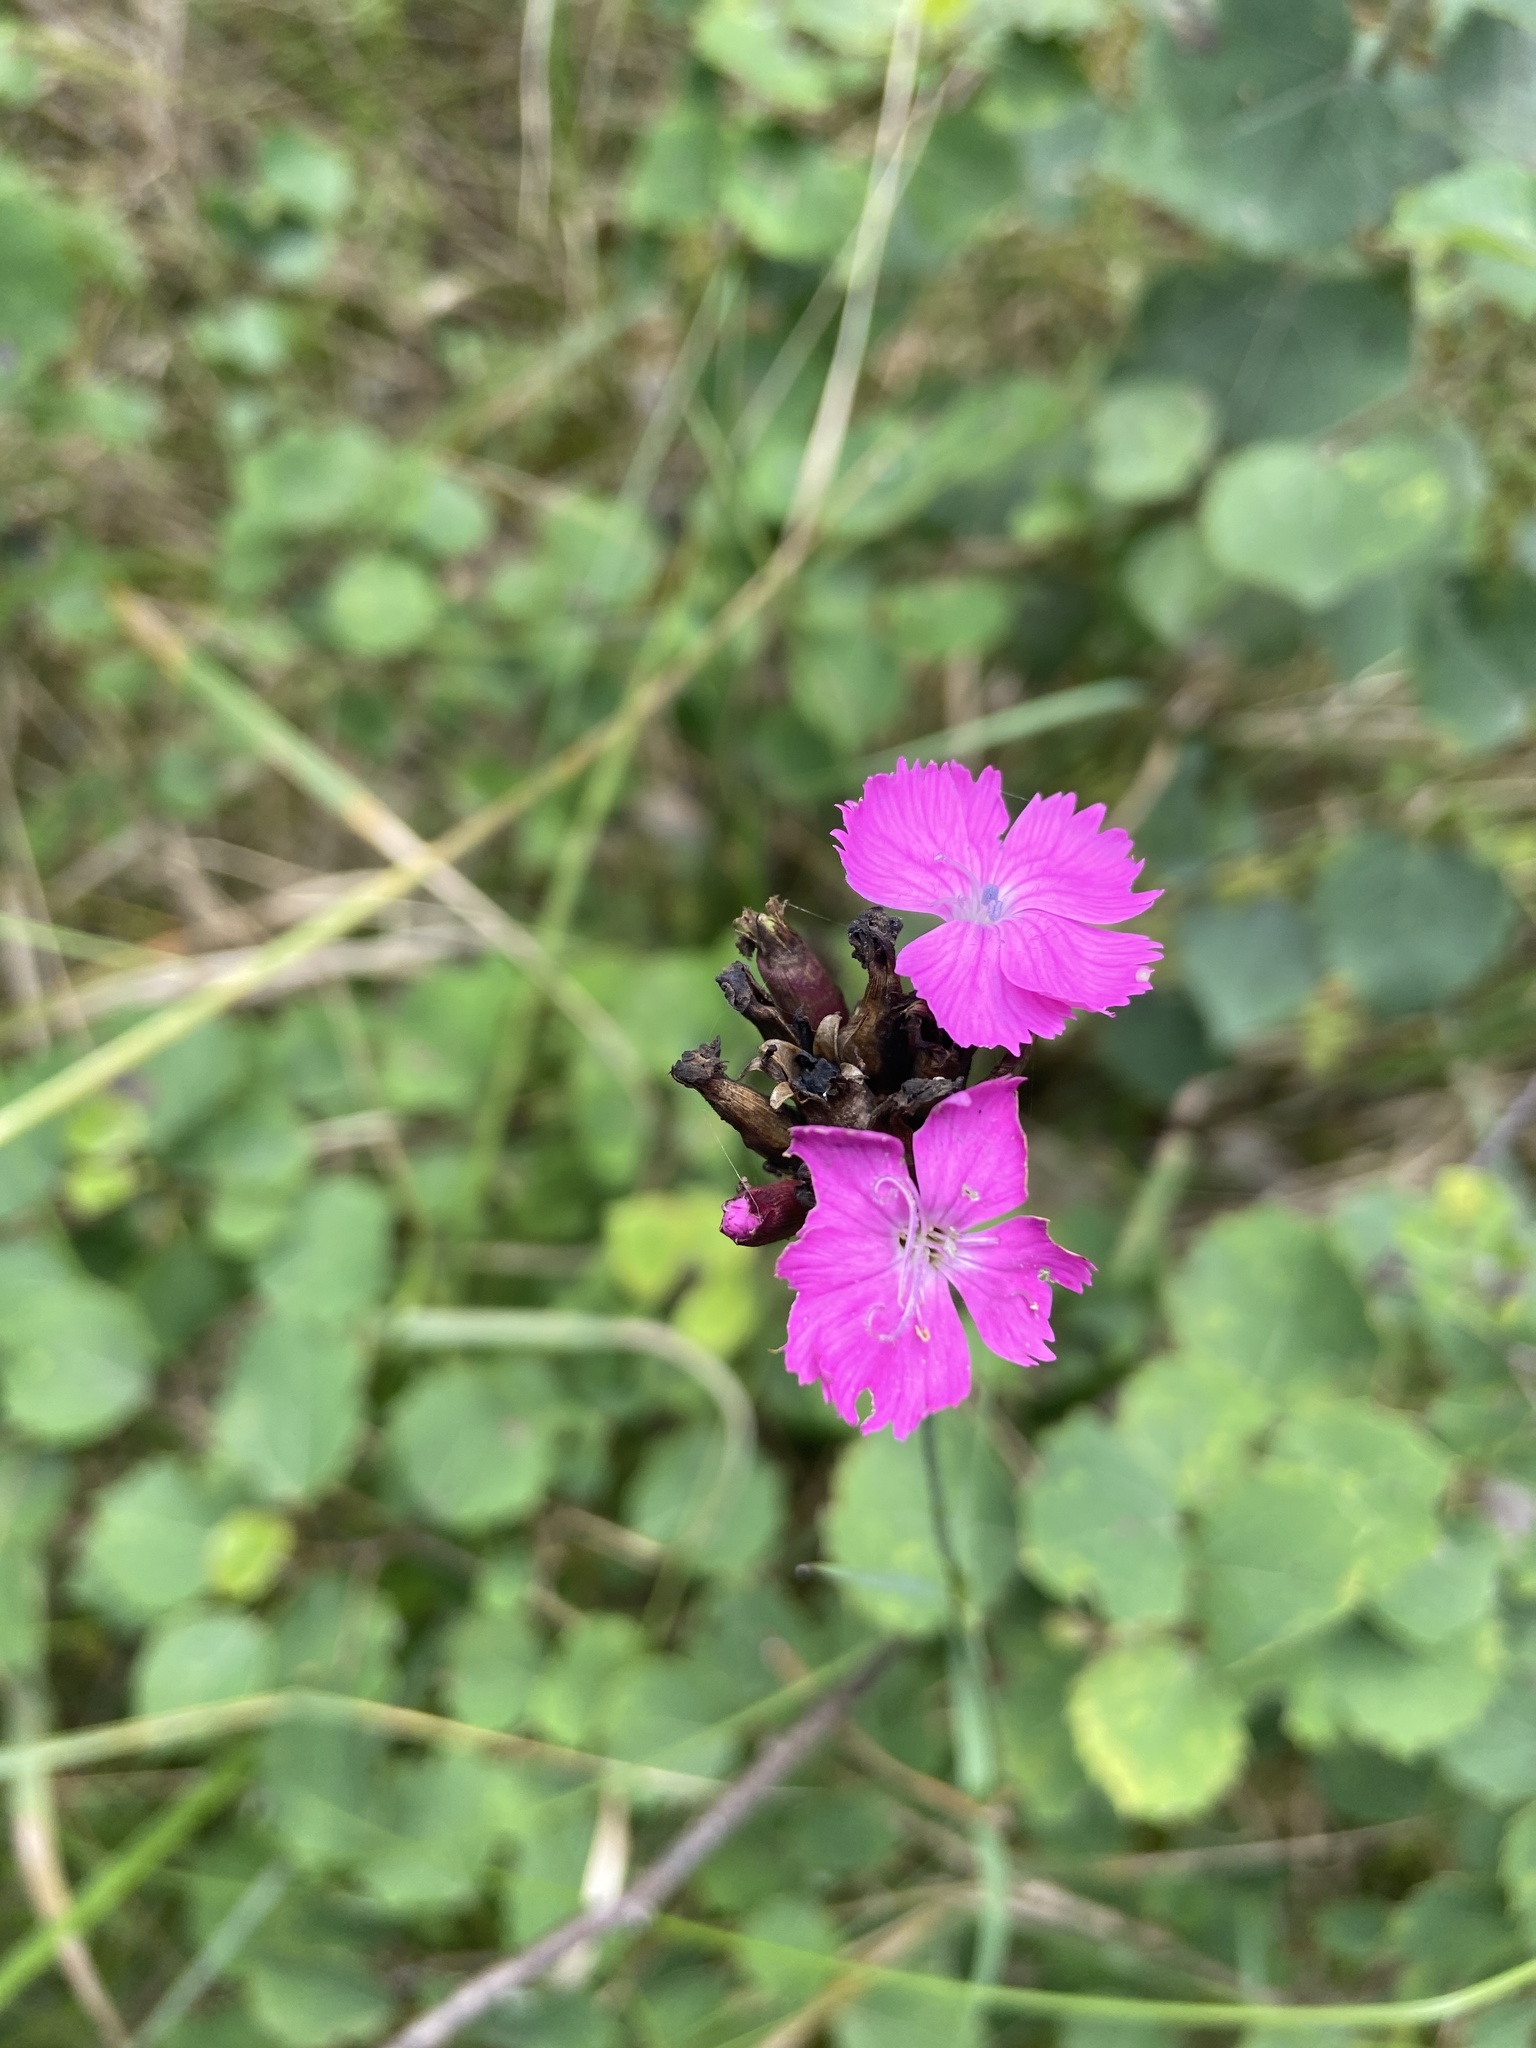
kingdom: Plantae
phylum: Tracheophyta
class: Magnoliopsida
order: Caryophyllales
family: Caryophyllaceae
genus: Dianthus
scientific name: Dianthus carthusianorum
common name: Carthusian pink
